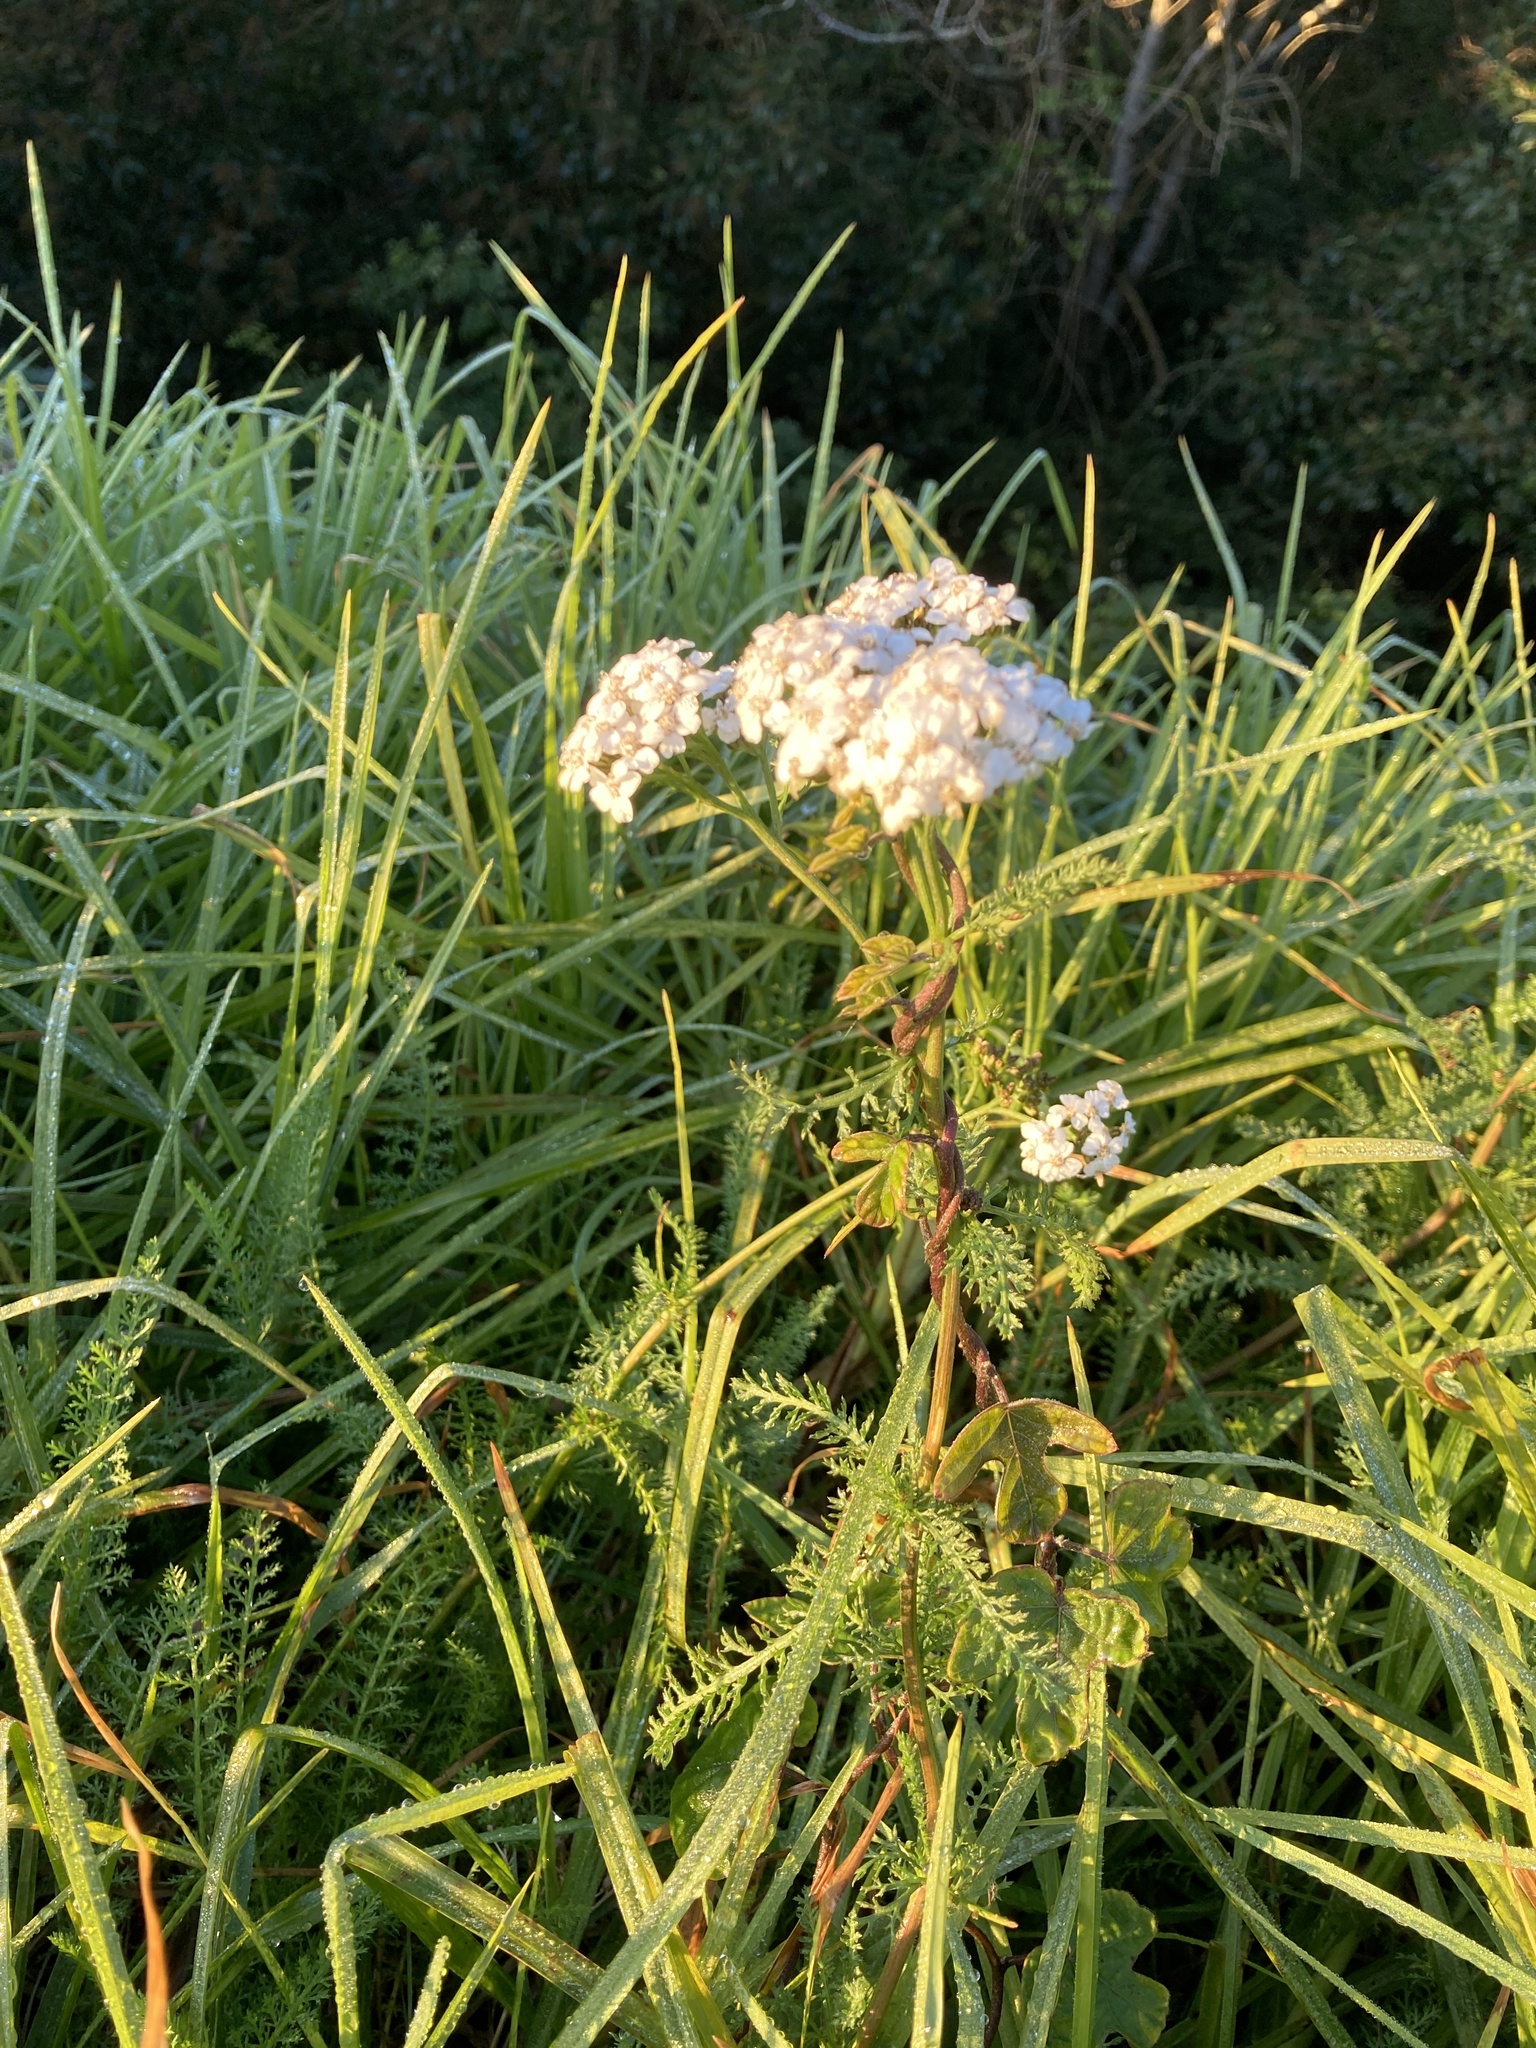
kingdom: Plantae
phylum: Tracheophyta
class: Magnoliopsida
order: Asterales
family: Asteraceae
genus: Achillea
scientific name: Achillea millefolium
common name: Yarrow
